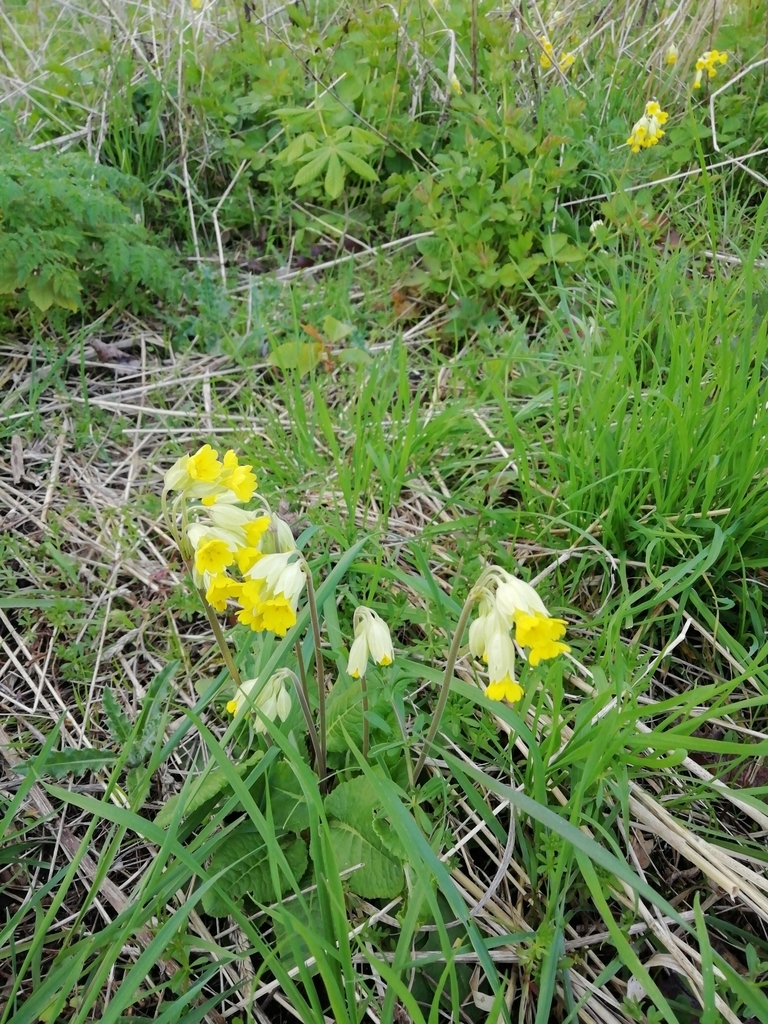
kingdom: Plantae
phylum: Tracheophyta
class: Magnoliopsida
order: Ericales
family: Primulaceae
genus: Primula
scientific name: Primula veris
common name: Cowslip
